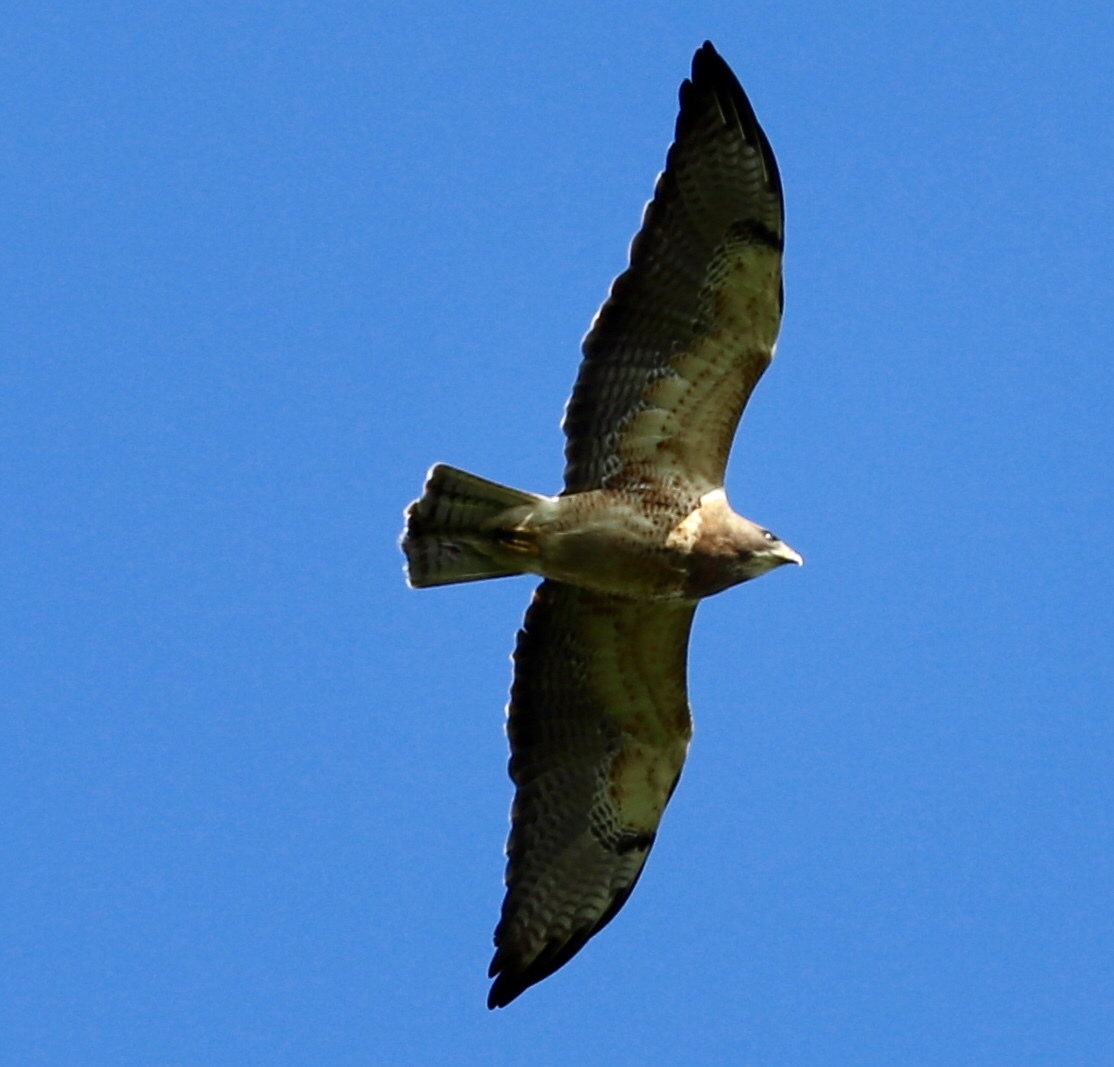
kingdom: Animalia
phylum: Chordata
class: Aves
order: Accipitriformes
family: Accipitridae
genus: Buteo
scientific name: Buteo swainsoni
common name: Swainson's hawk
